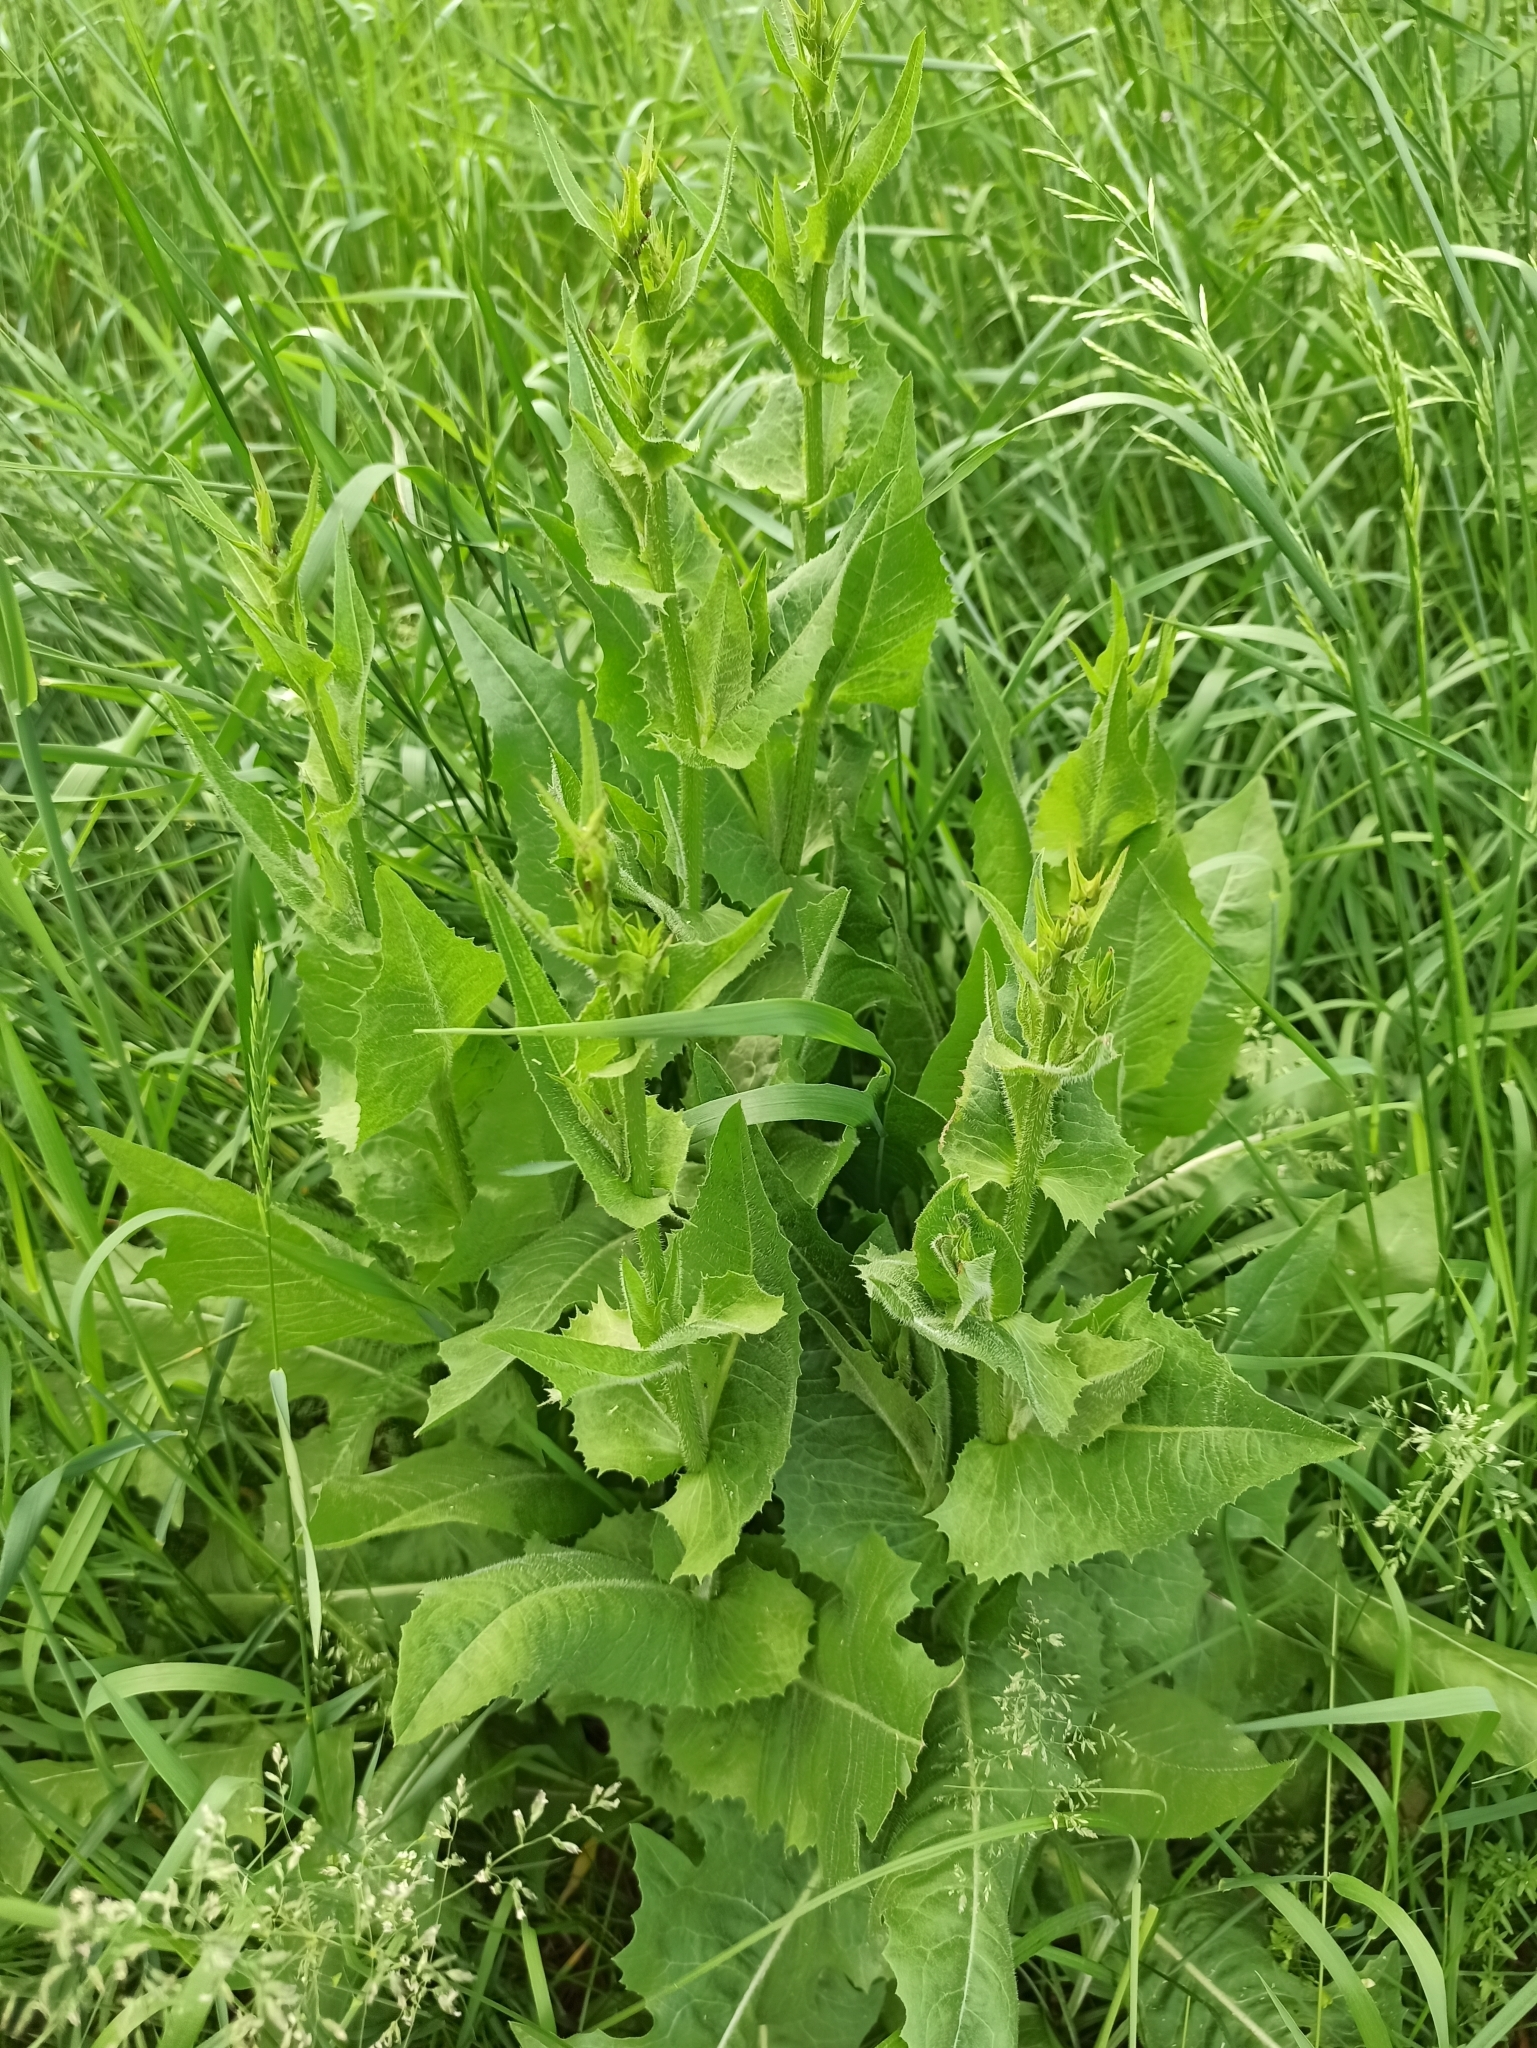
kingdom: Plantae
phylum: Tracheophyta
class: Magnoliopsida
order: Asterales
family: Asteraceae
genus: Cichorium
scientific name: Cichorium intybus
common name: Chicory
